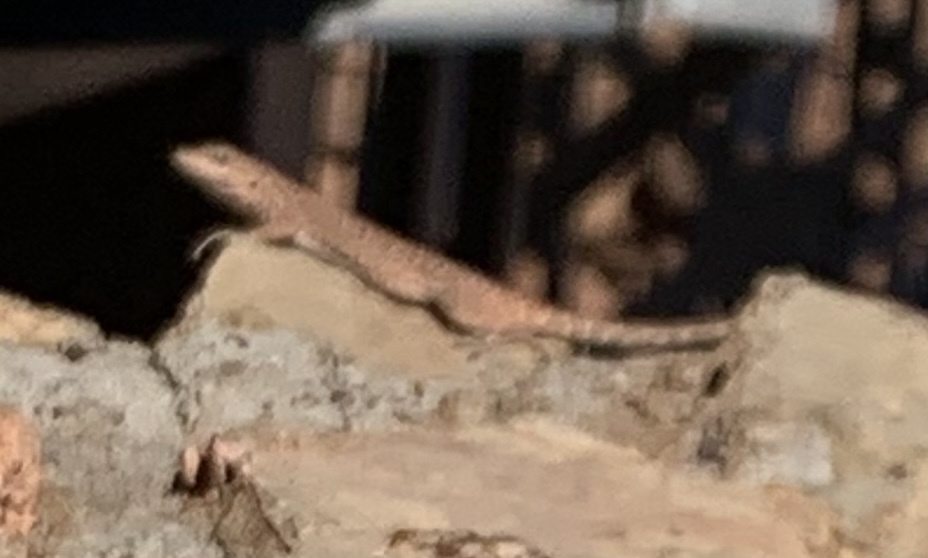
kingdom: Animalia
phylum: Chordata
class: Squamata
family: Phrynosomatidae
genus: Urosaurus
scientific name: Urosaurus ornatus
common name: Ornate tree lizard
